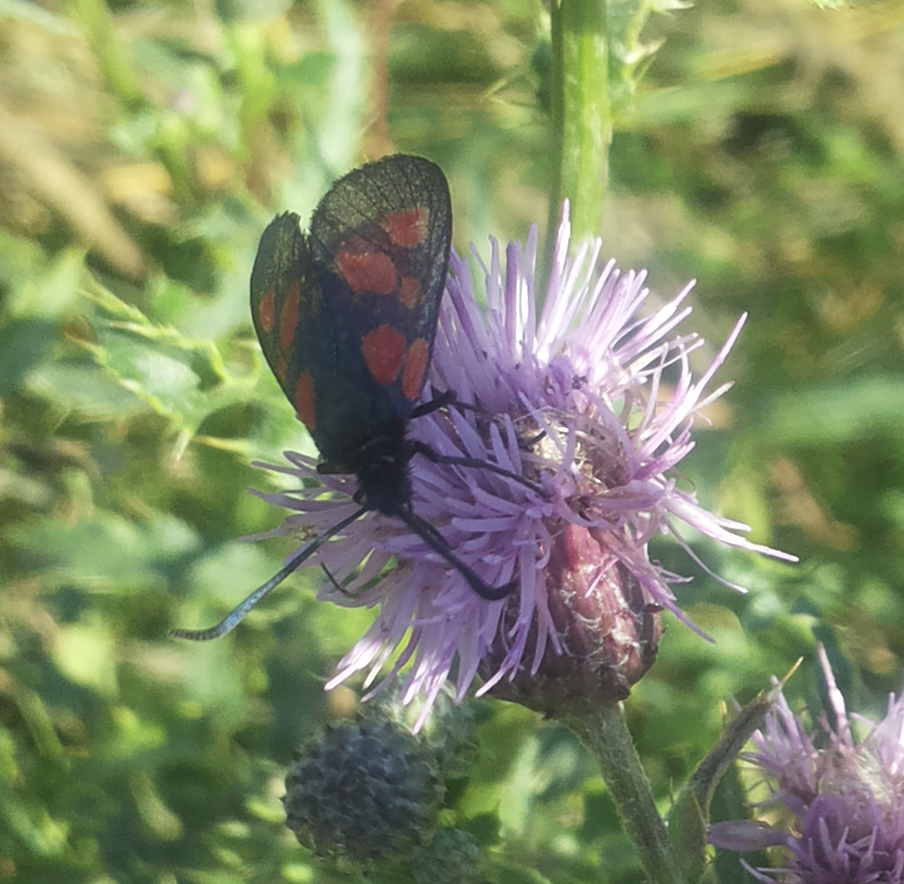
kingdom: Animalia
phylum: Arthropoda
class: Insecta
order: Lepidoptera
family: Zygaenidae
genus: Zygaena
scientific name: Zygaena viciae
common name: New forest burnet
